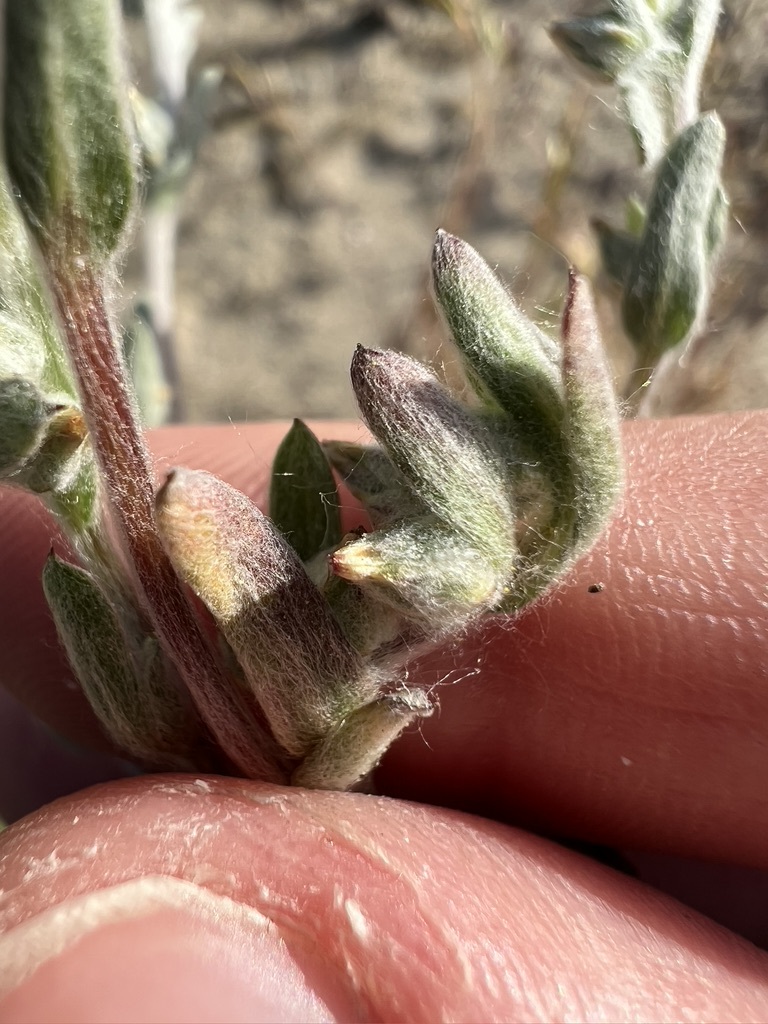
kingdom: Plantae
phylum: Tracheophyta
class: Magnoliopsida
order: Asterales
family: Asteraceae
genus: Logfia
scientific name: Logfia californica
